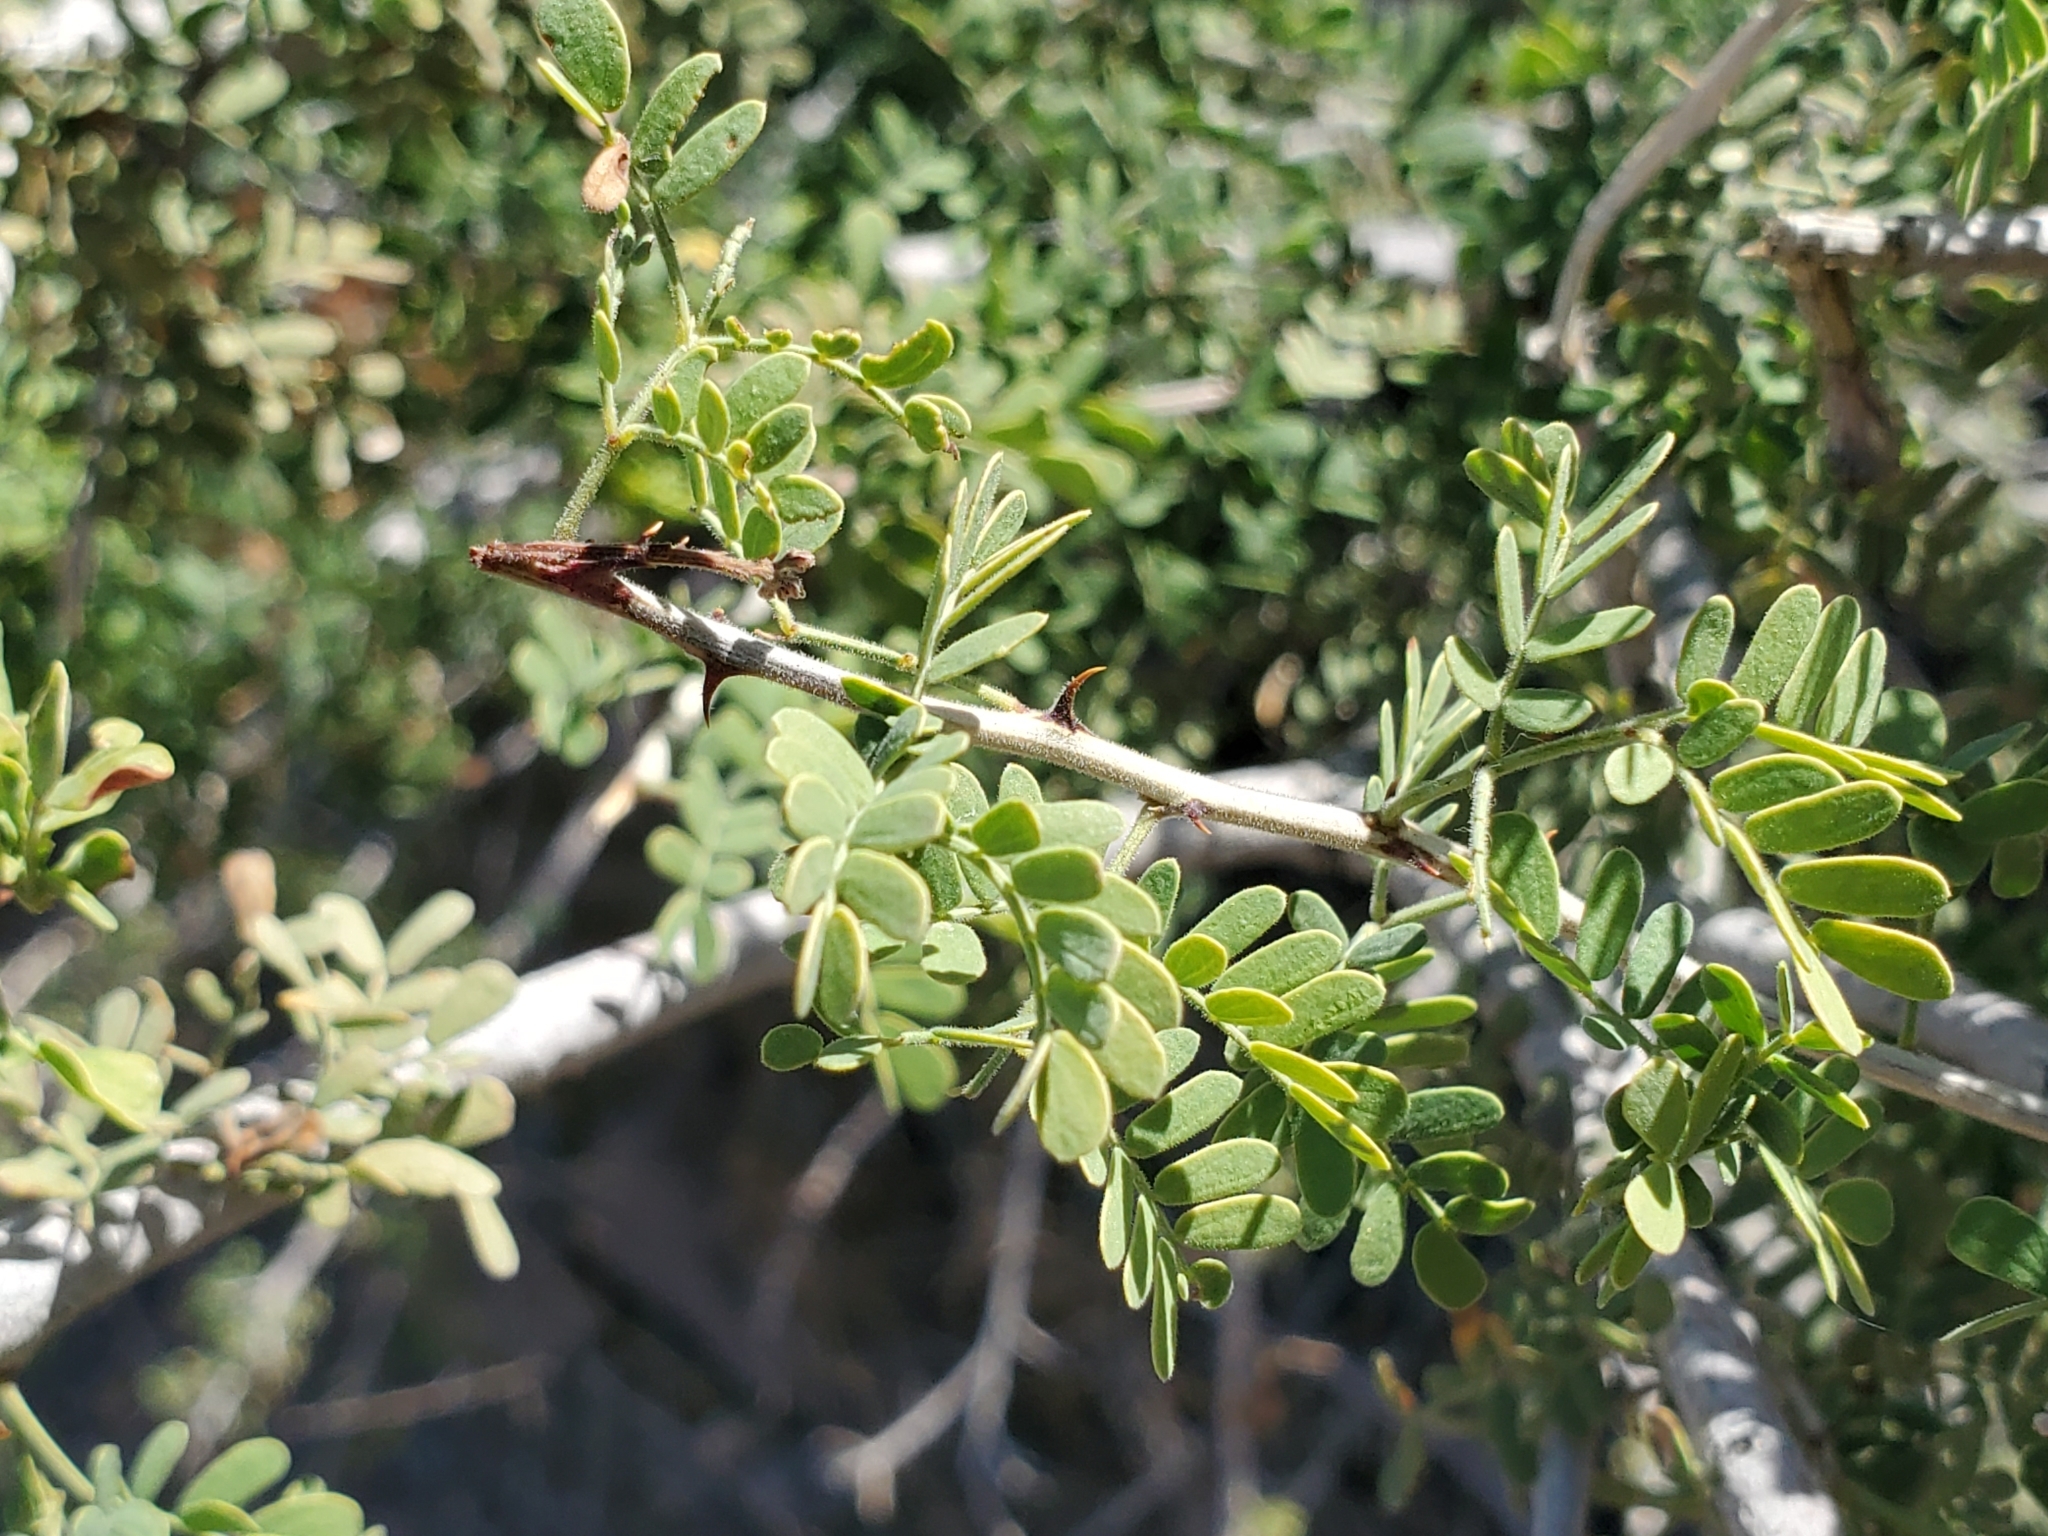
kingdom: Plantae
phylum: Tracheophyta
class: Magnoliopsida
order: Fabales
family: Fabaceae
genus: Senegalia
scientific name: Senegalia greggii
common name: Texas-mimosa
